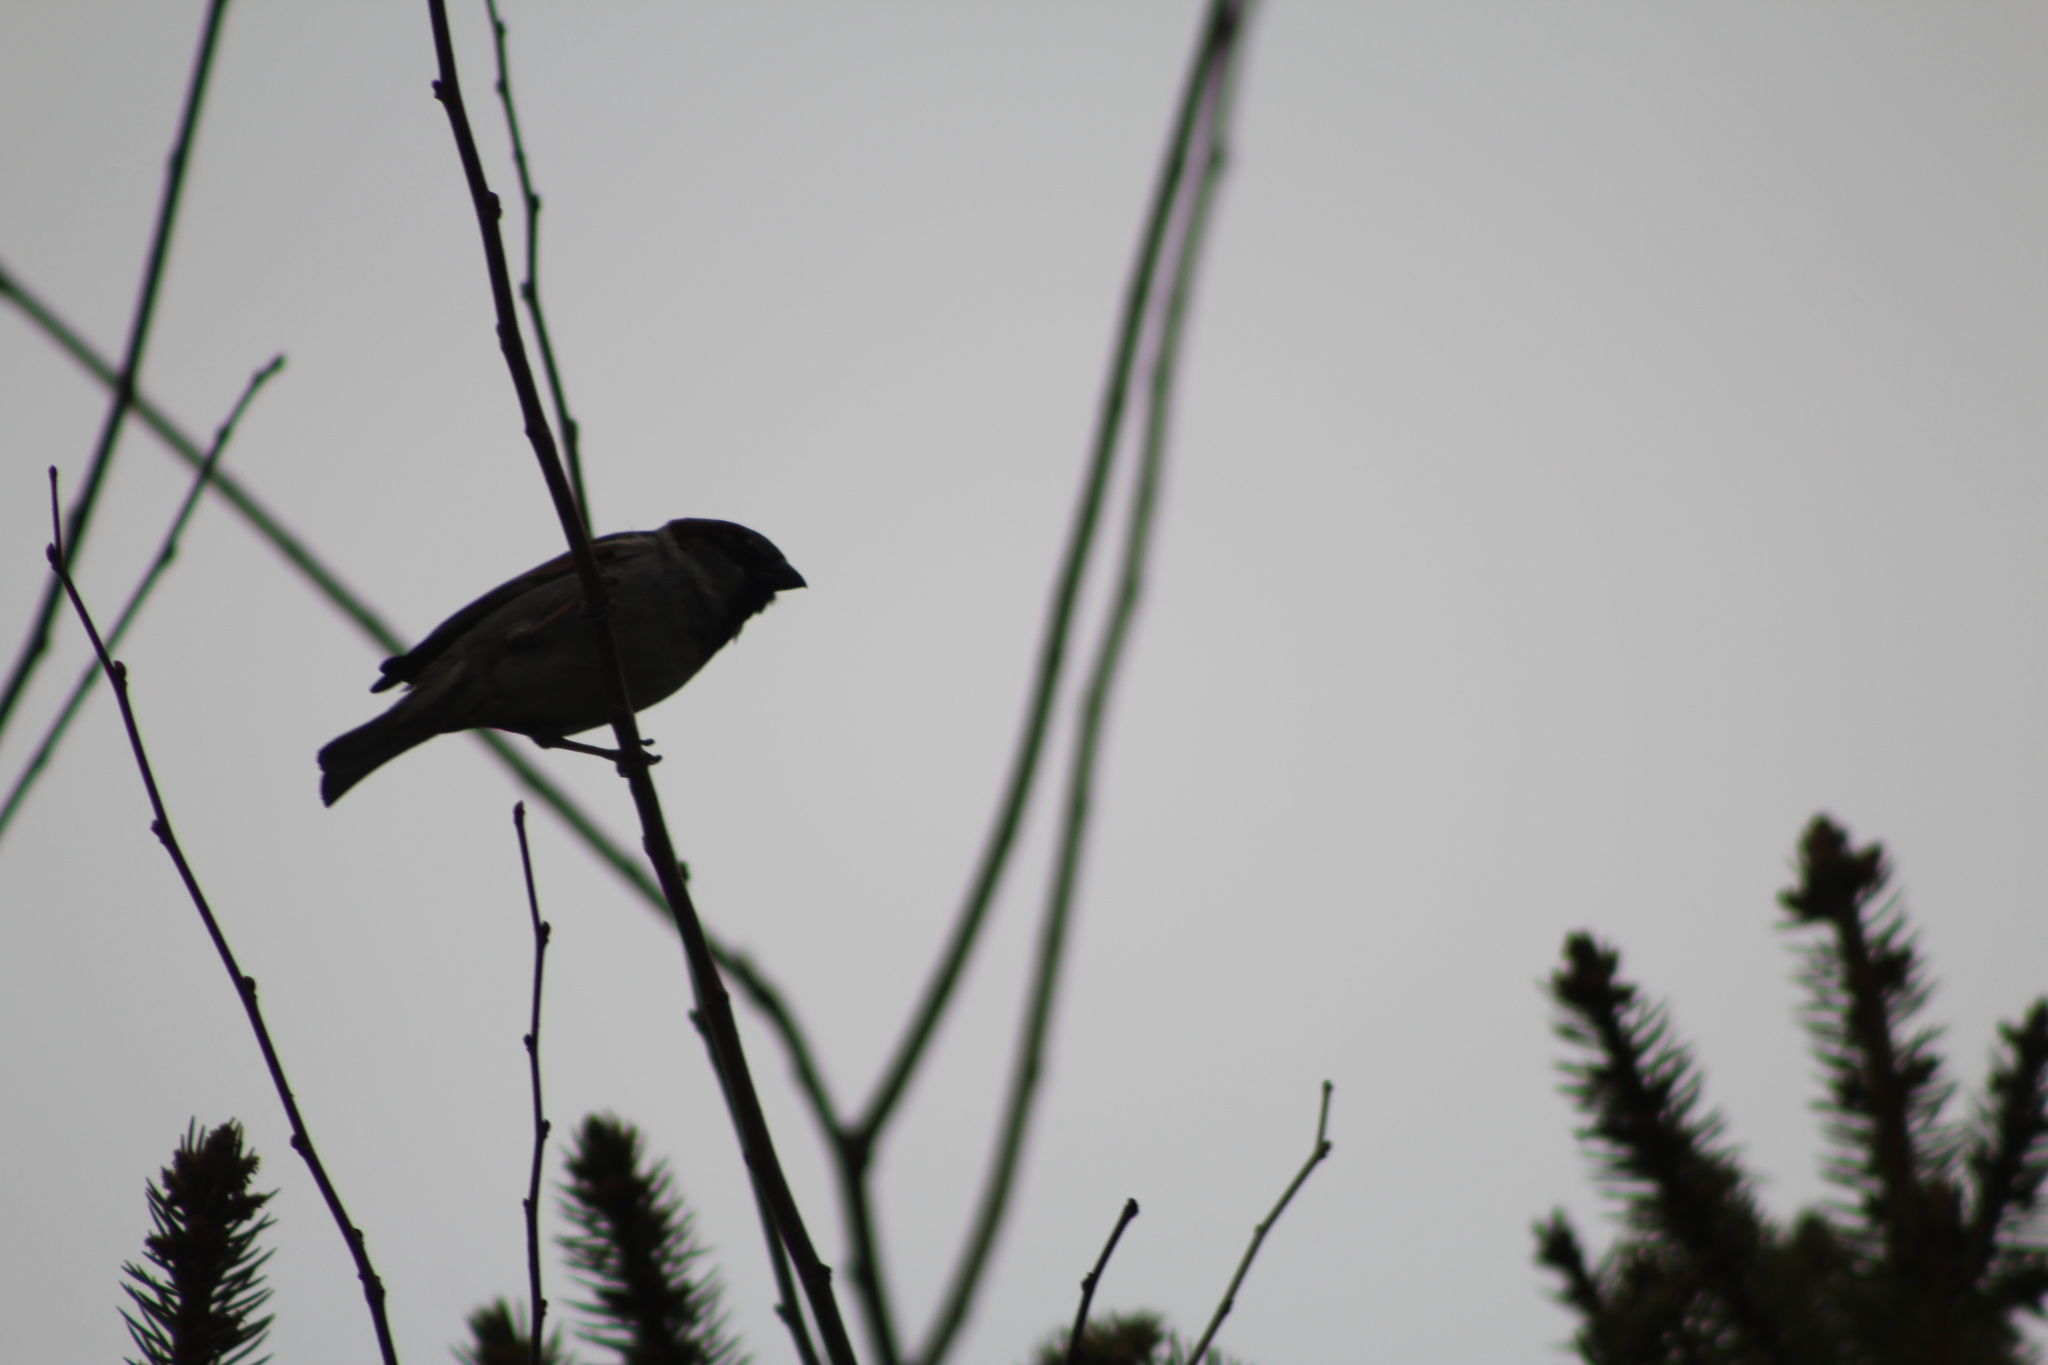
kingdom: Animalia
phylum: Chordata
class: Aves
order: Passeriformes
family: Passeridae
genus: Passer
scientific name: Passer domesticus
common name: House sparrow
